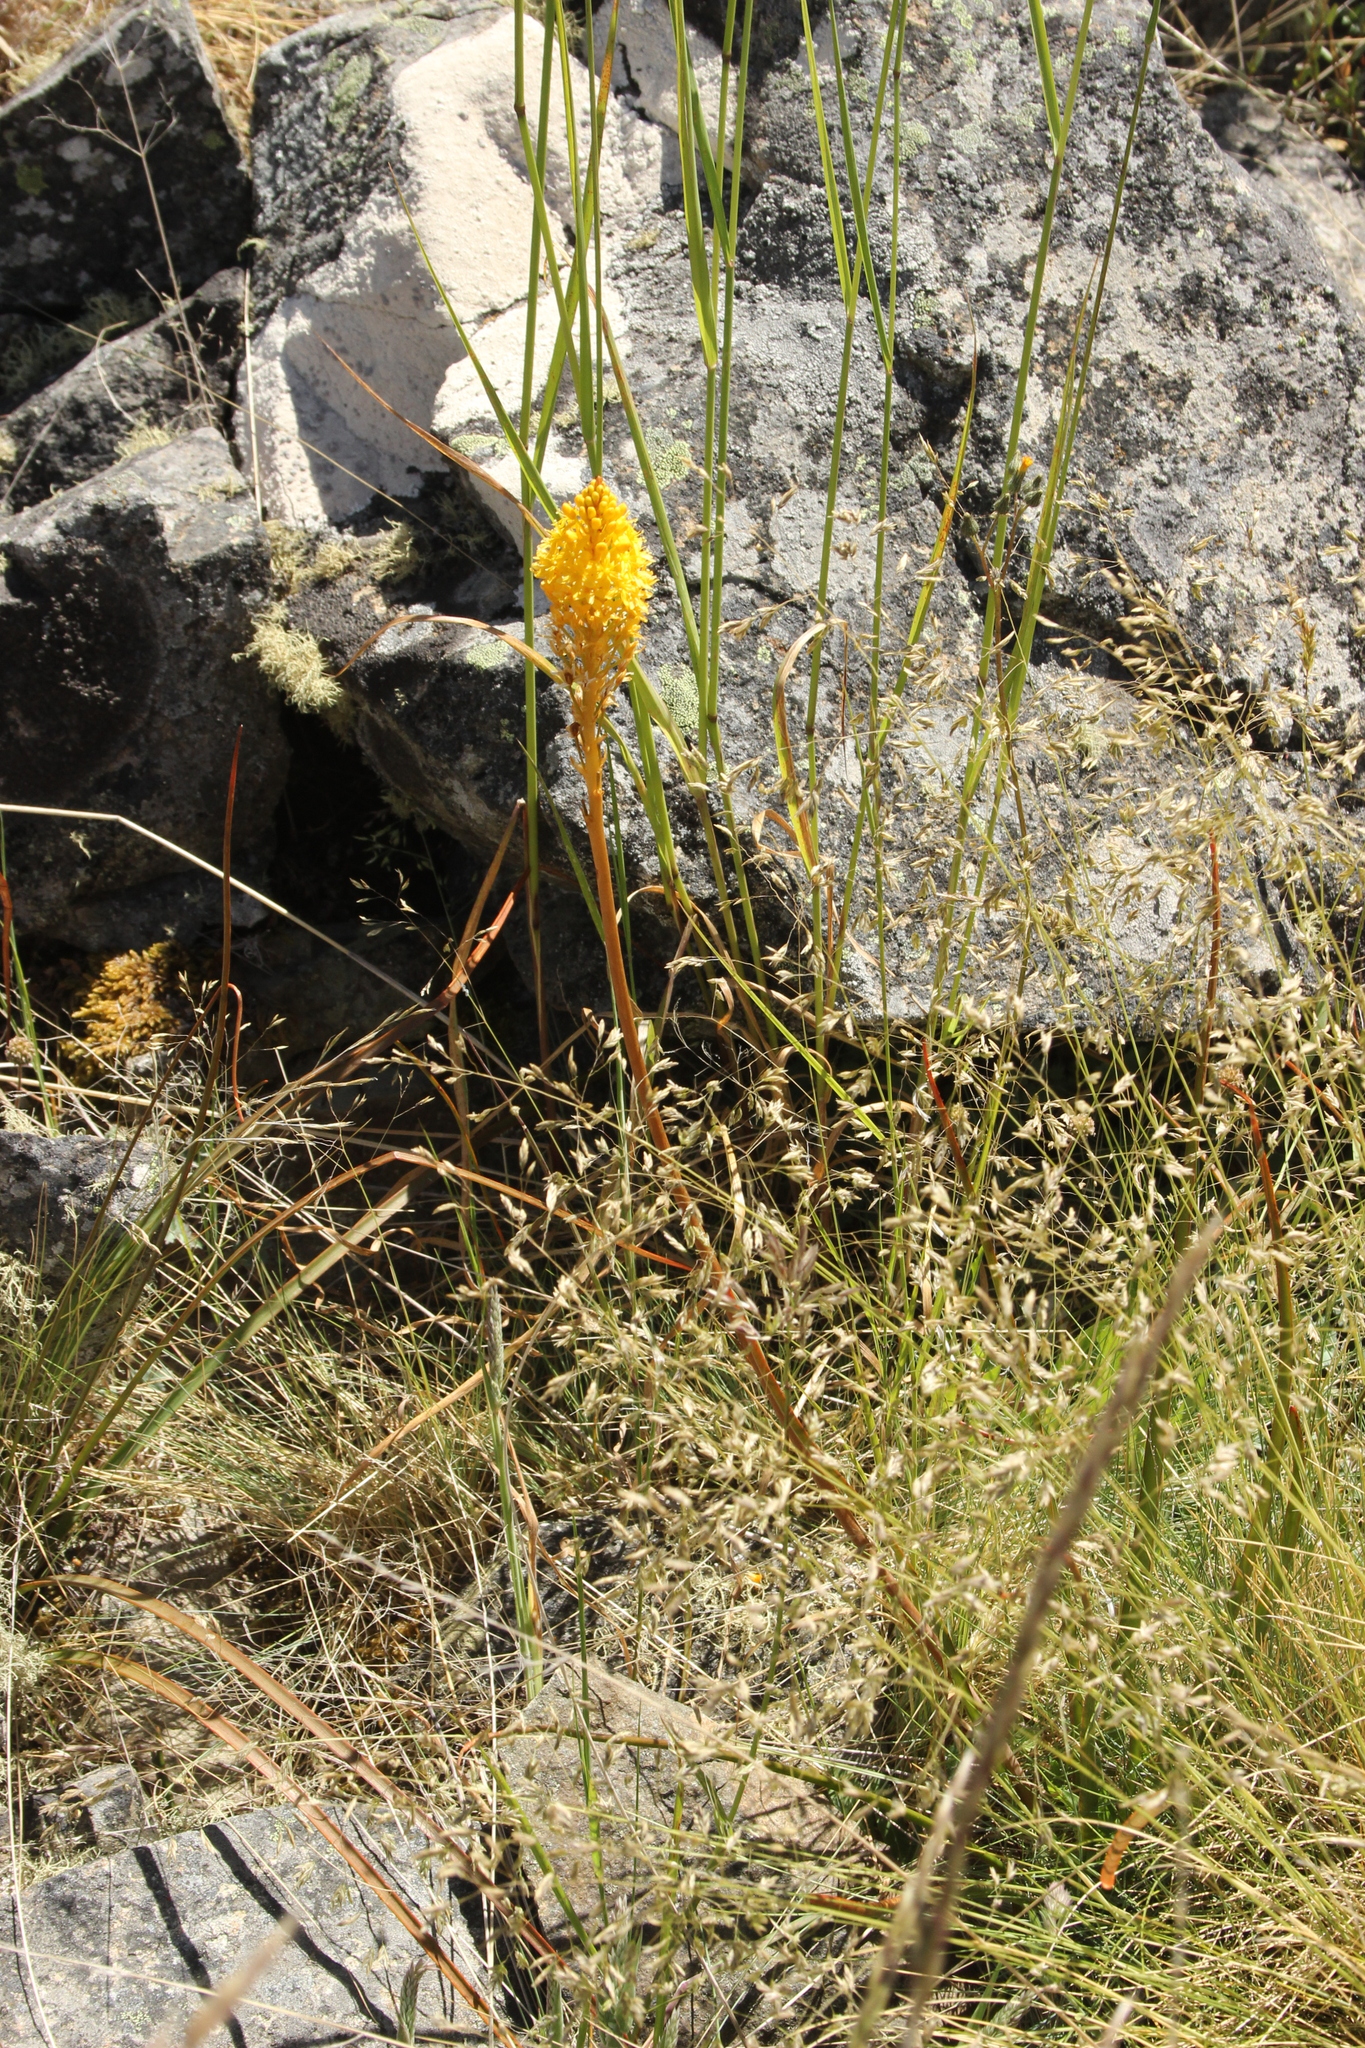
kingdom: Plantae
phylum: Tracheophyta
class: Liliopsida
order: Asparagales
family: Asphodelaceae
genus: Bulbinella
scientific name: Bulbinella angustifolia
